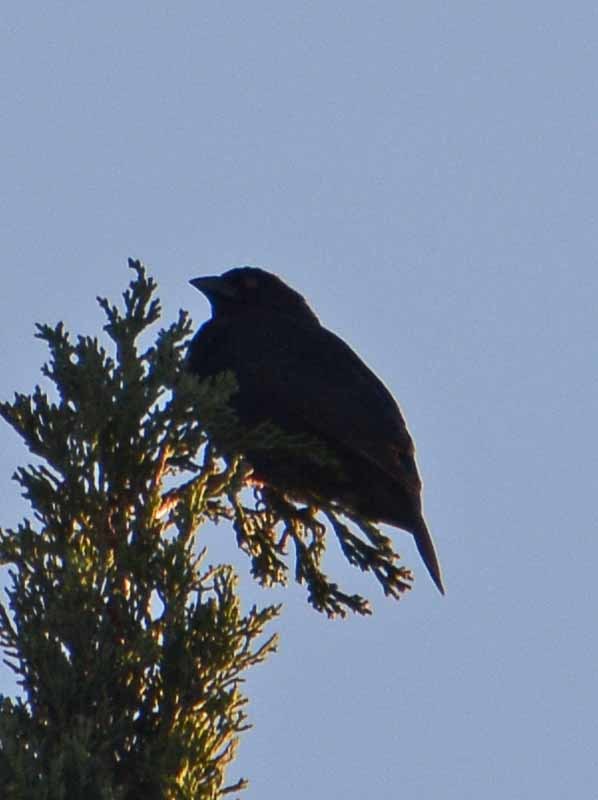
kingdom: Animalia
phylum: Chordata
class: Aves
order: Passeriformes
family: Icteridae
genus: Molothrus
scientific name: Molothrus aeneus
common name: Bronzed cowbird
